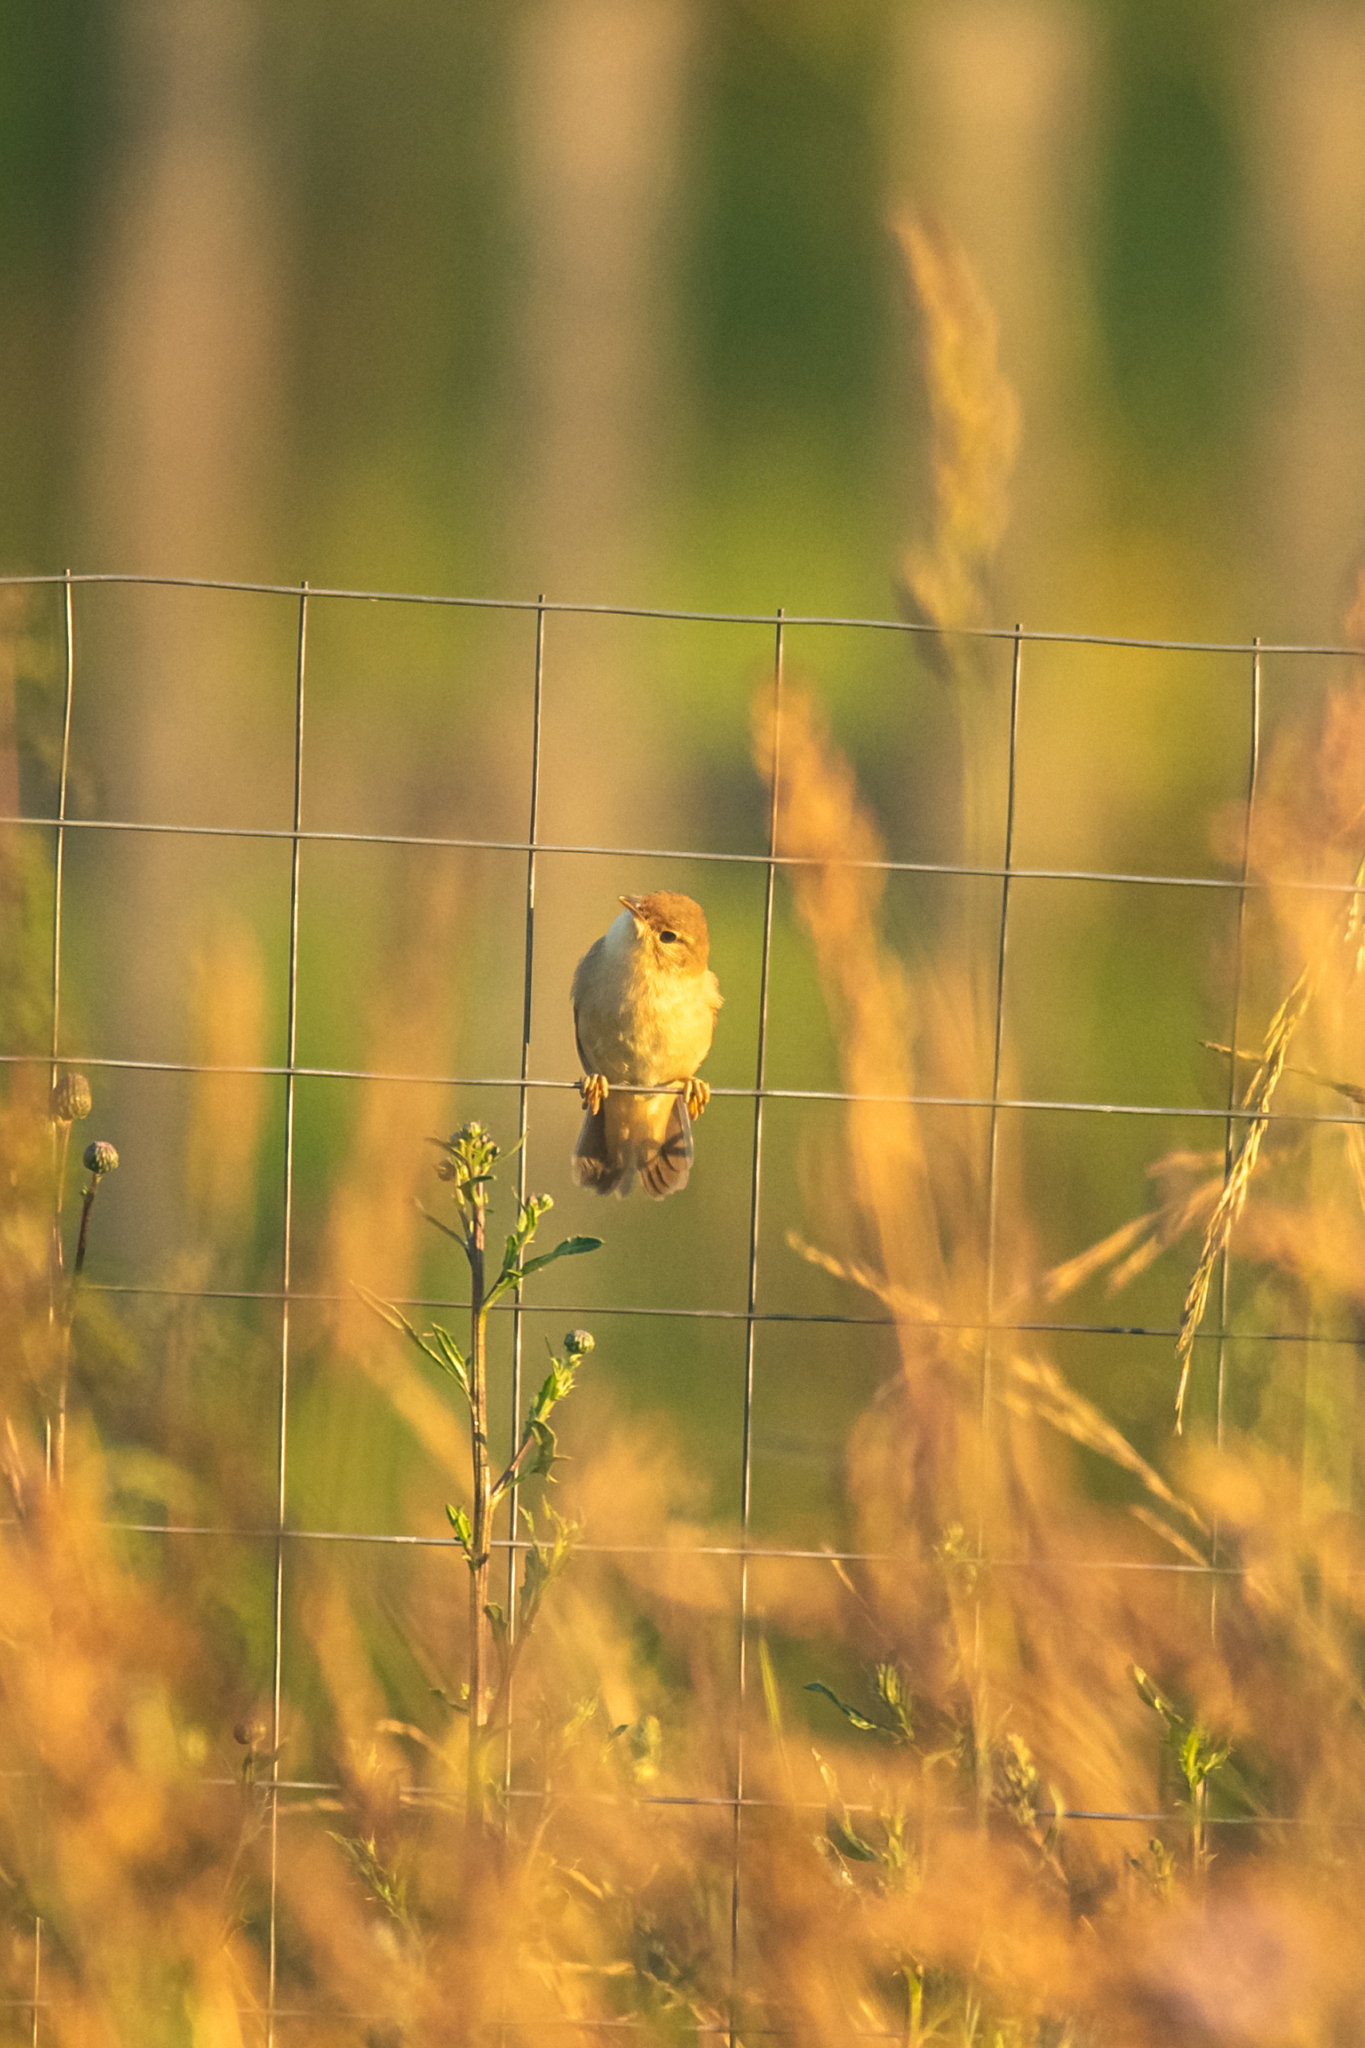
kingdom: Animalia
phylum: Chordata
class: Aves
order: Passeriformes
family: Locustellidae
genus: Locustella
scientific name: Locustella fluviatilis
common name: River warbler
